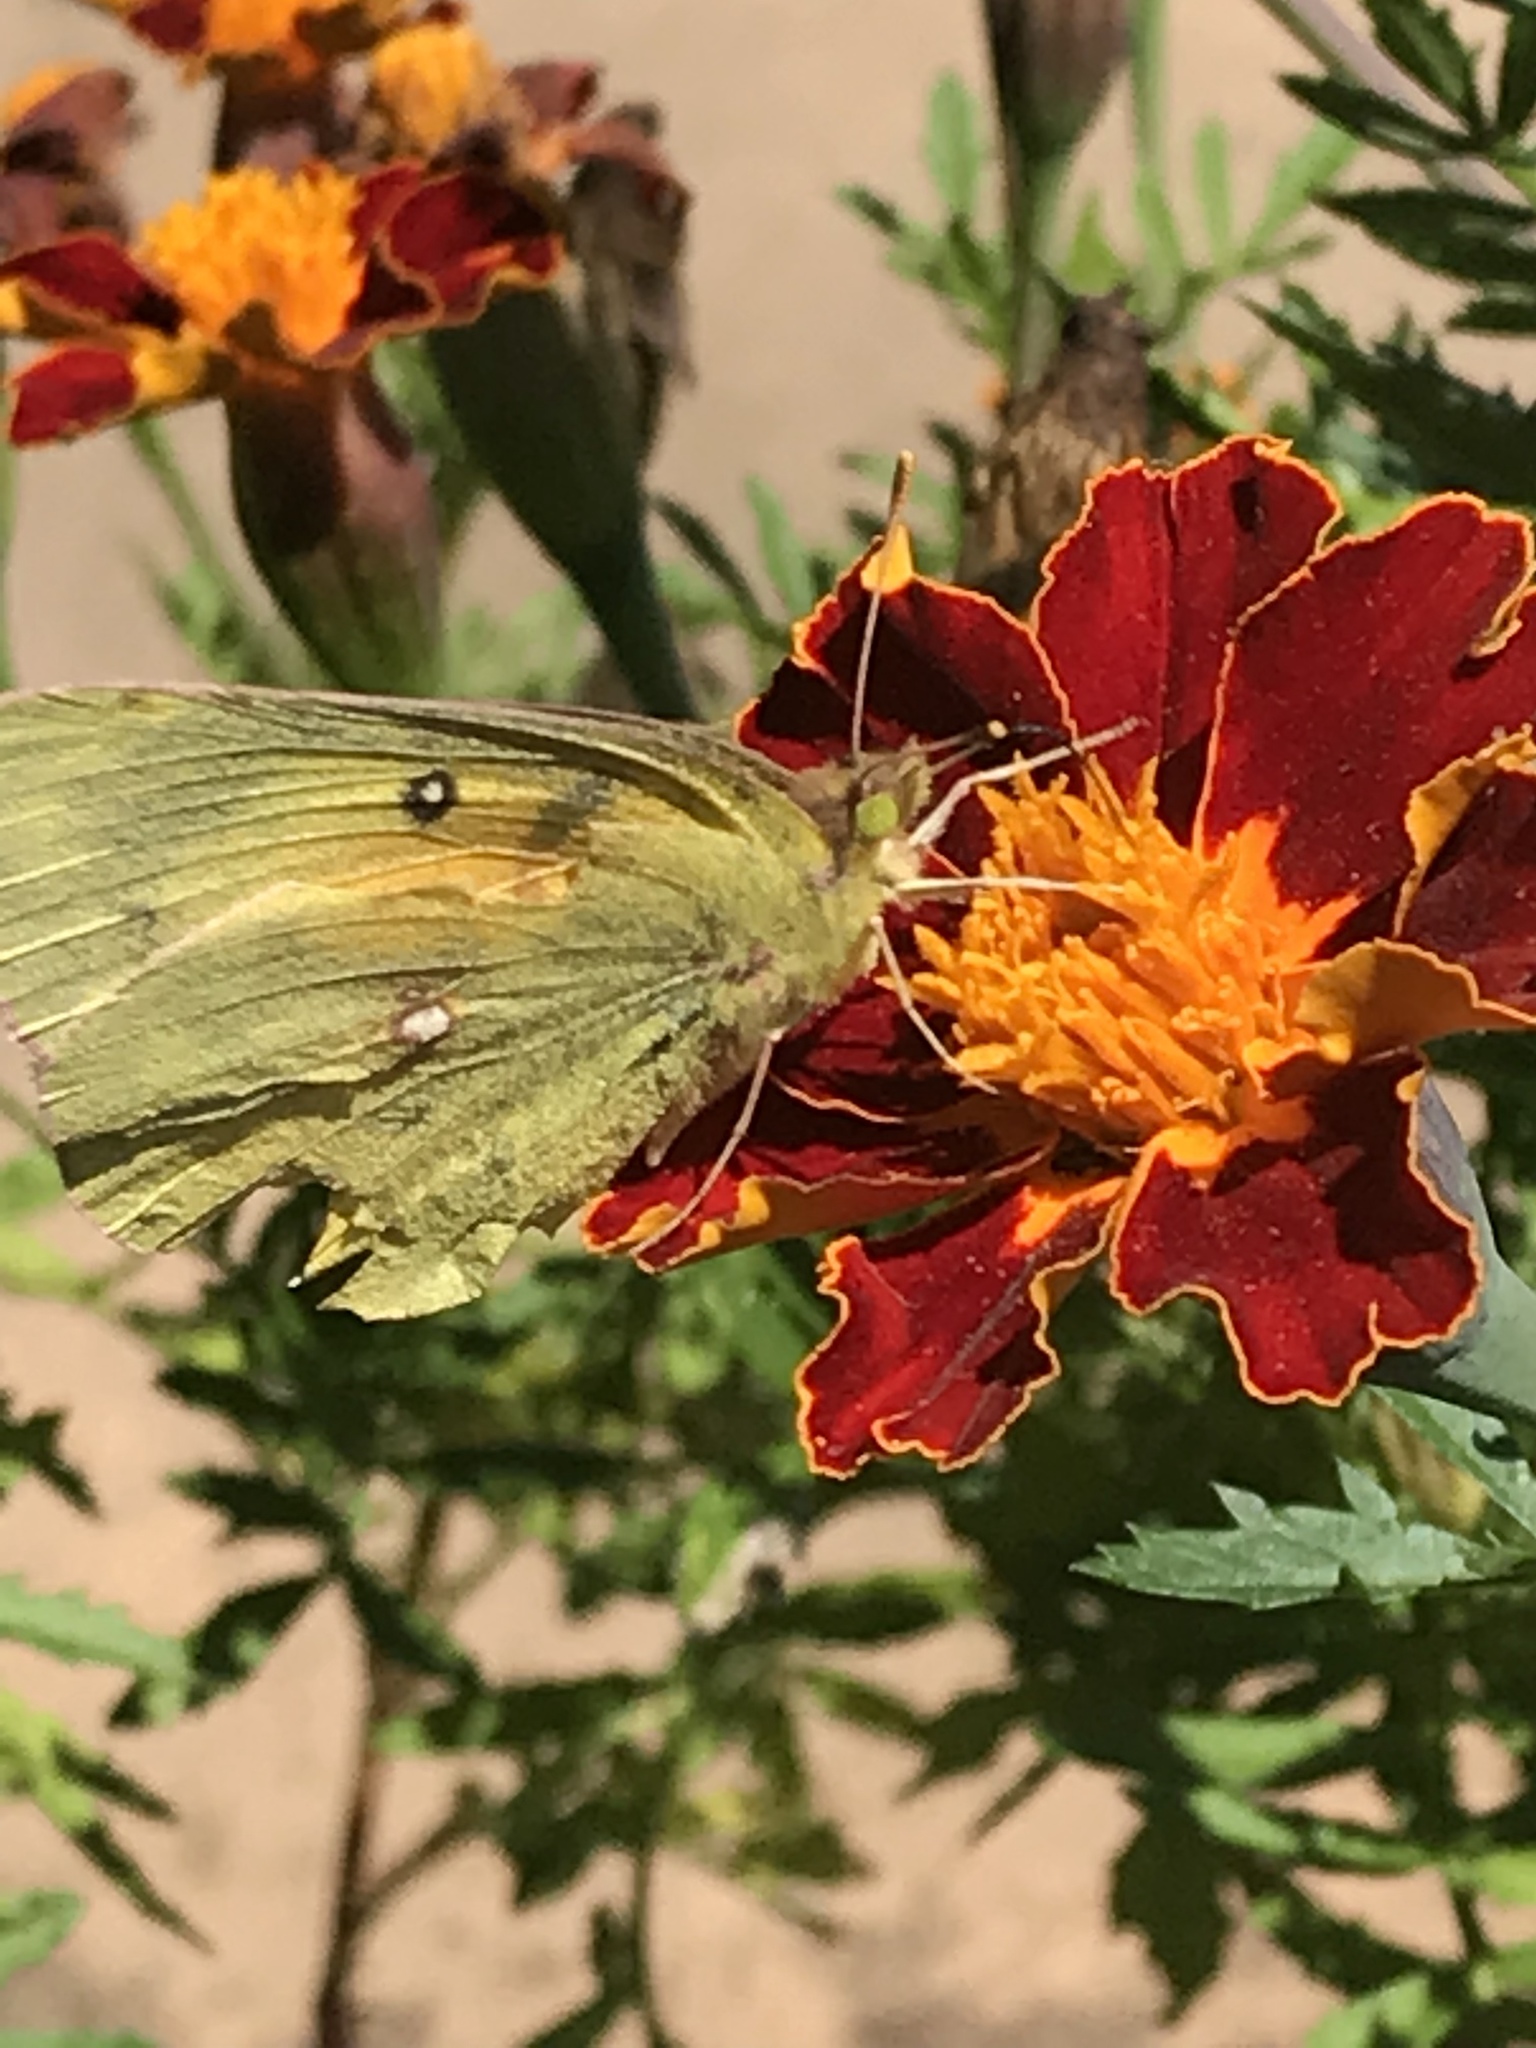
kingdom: Animalia
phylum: Arthropoda
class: Insecta
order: Lepidoptera
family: Pieridae
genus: Colias
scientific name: Colias eurytheme
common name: Alfalfa butterfly
